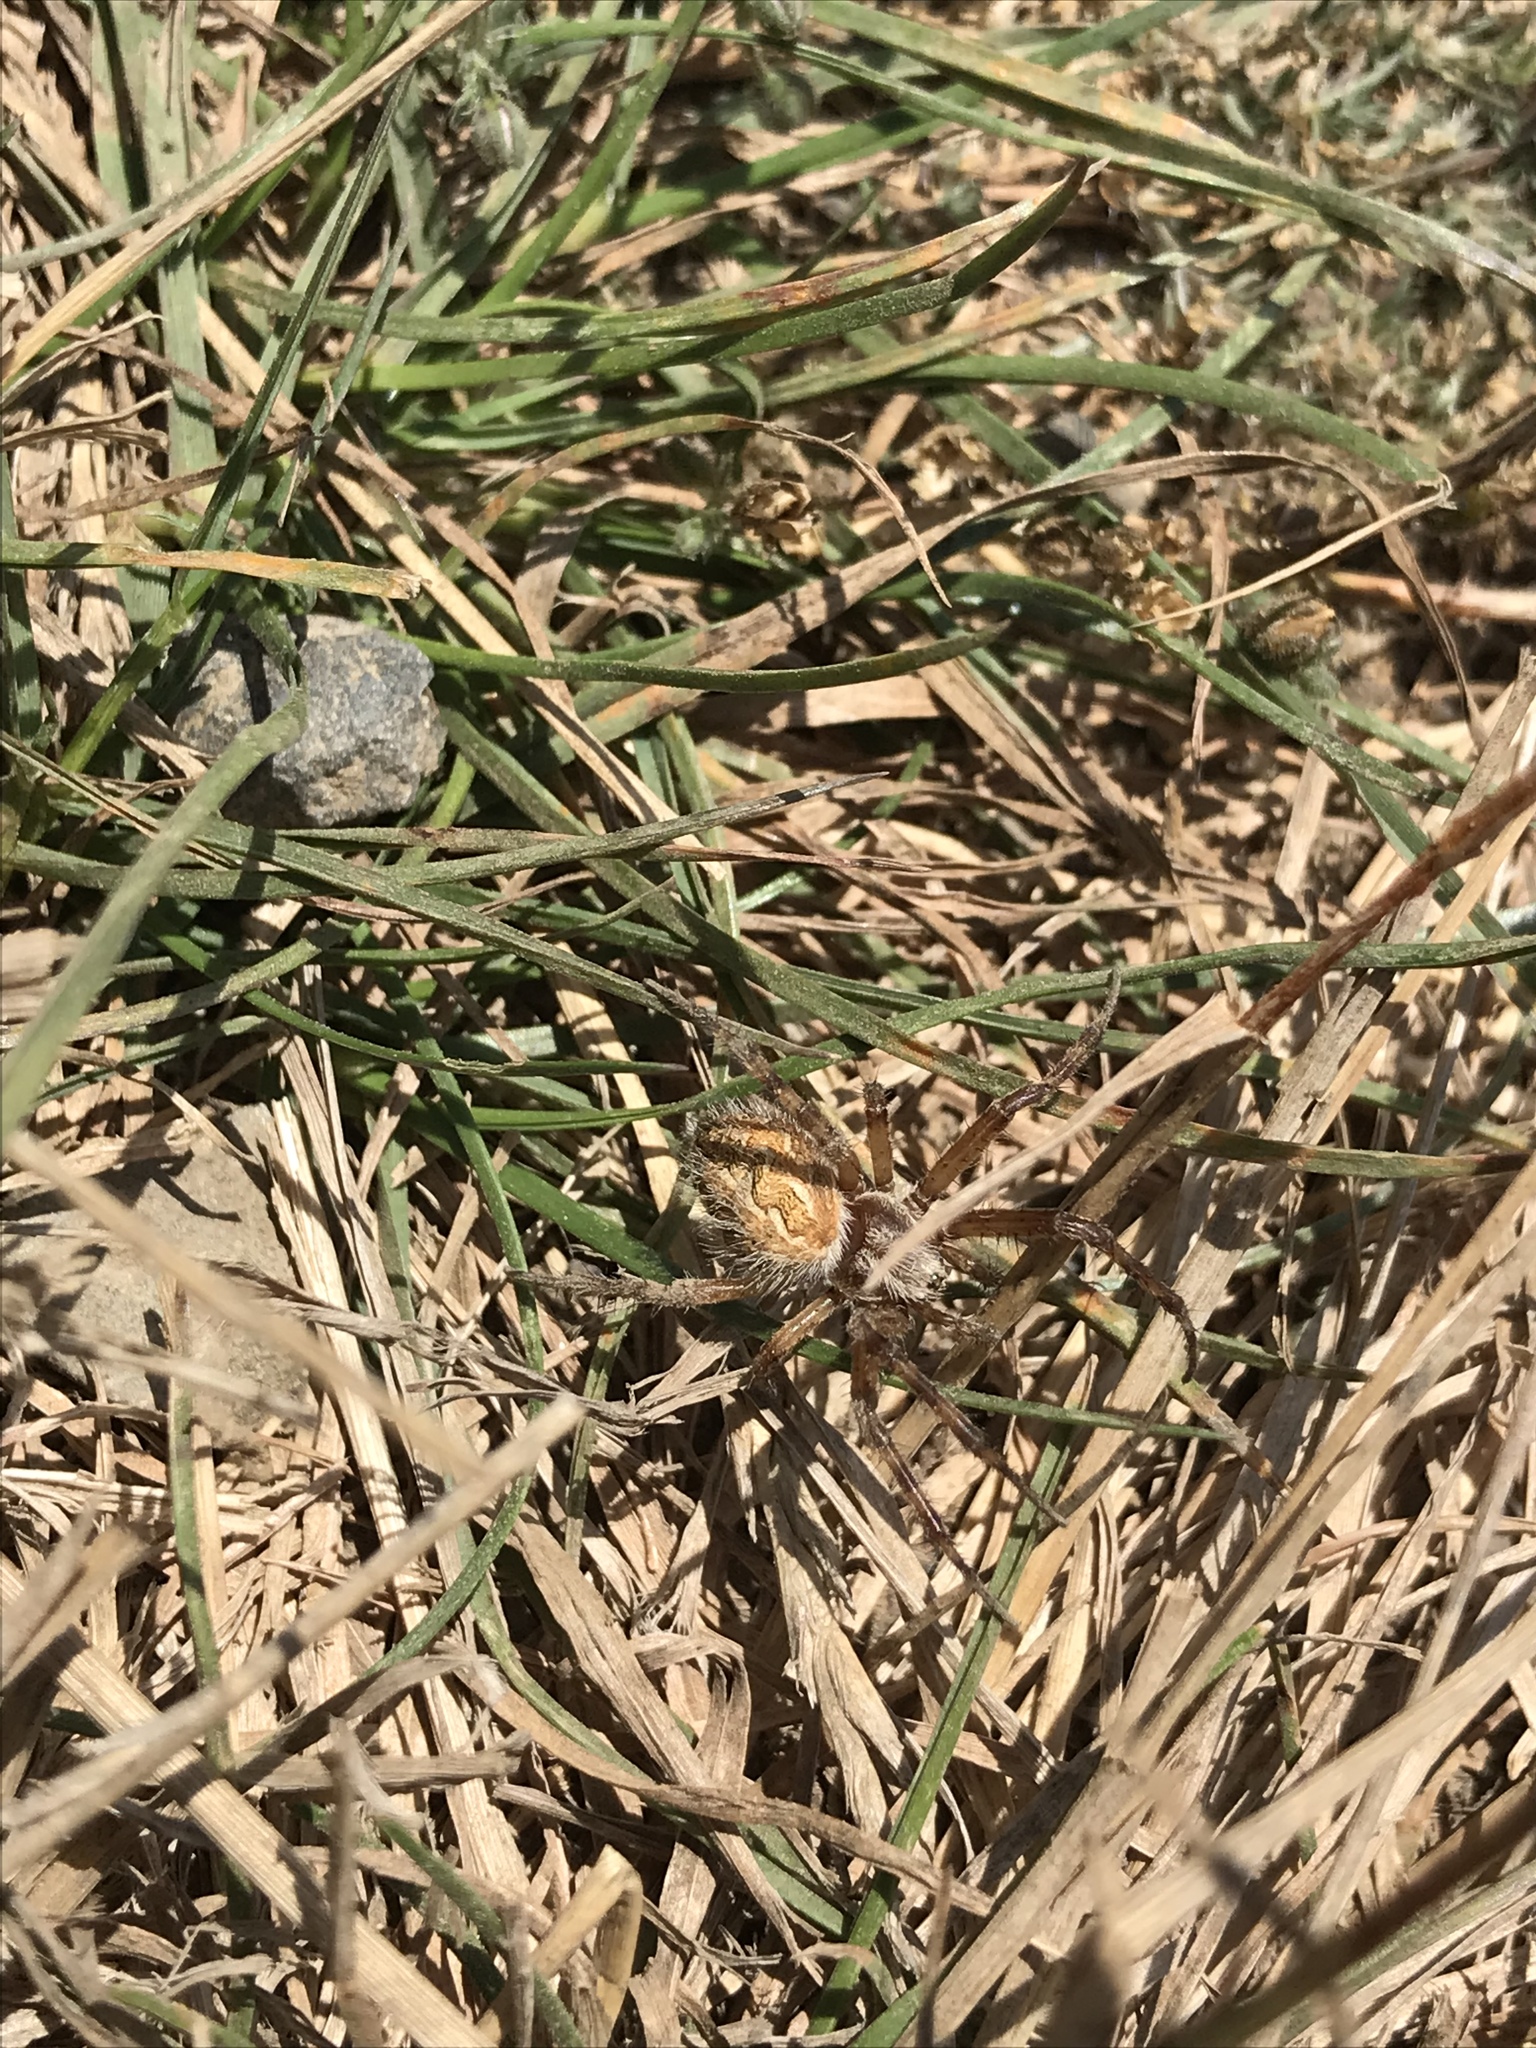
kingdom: Animalia
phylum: Arthropoda
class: Arachnida
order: Araneae
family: Araneidae
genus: Aculepeira
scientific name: Aculepeira packardi
